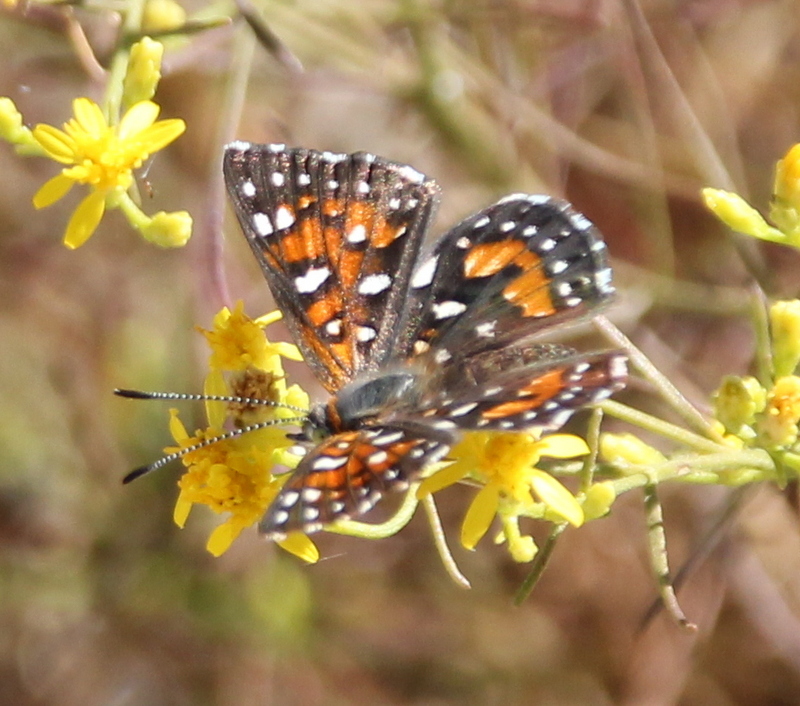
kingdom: Animalia
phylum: Arthropoda
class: Insecta
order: Lepidoptera
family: Riodinidae
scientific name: Riodinidae
